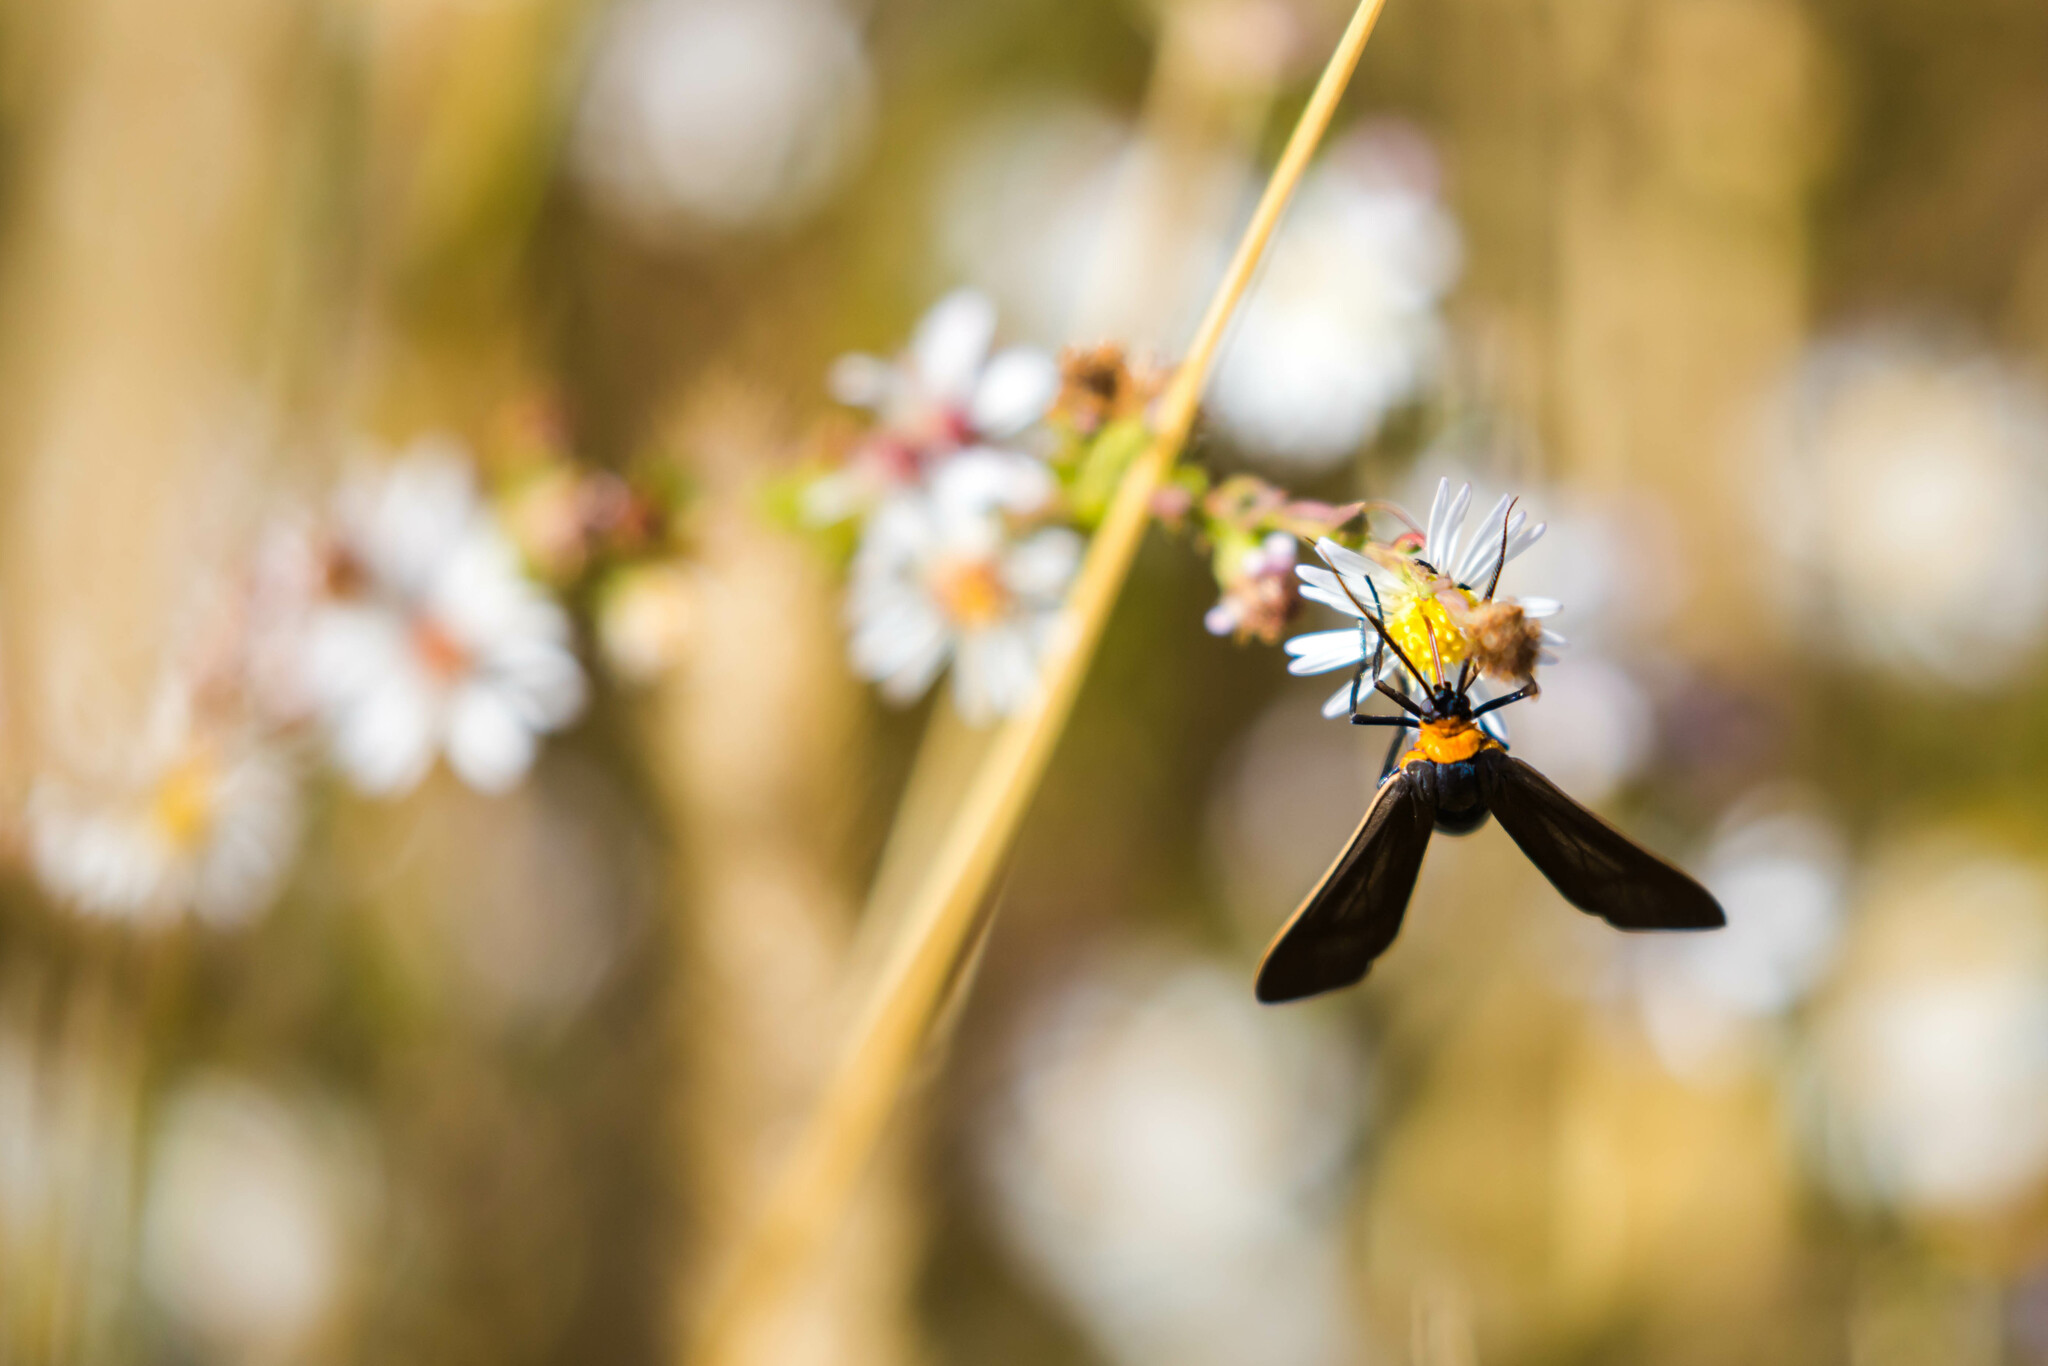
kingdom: Animalia
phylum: Arthropoda
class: Insecta
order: Lepidoptera
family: Erebidae
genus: Cisseps
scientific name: Cisseps fulvicollis
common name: Yellow-collared scape moth
